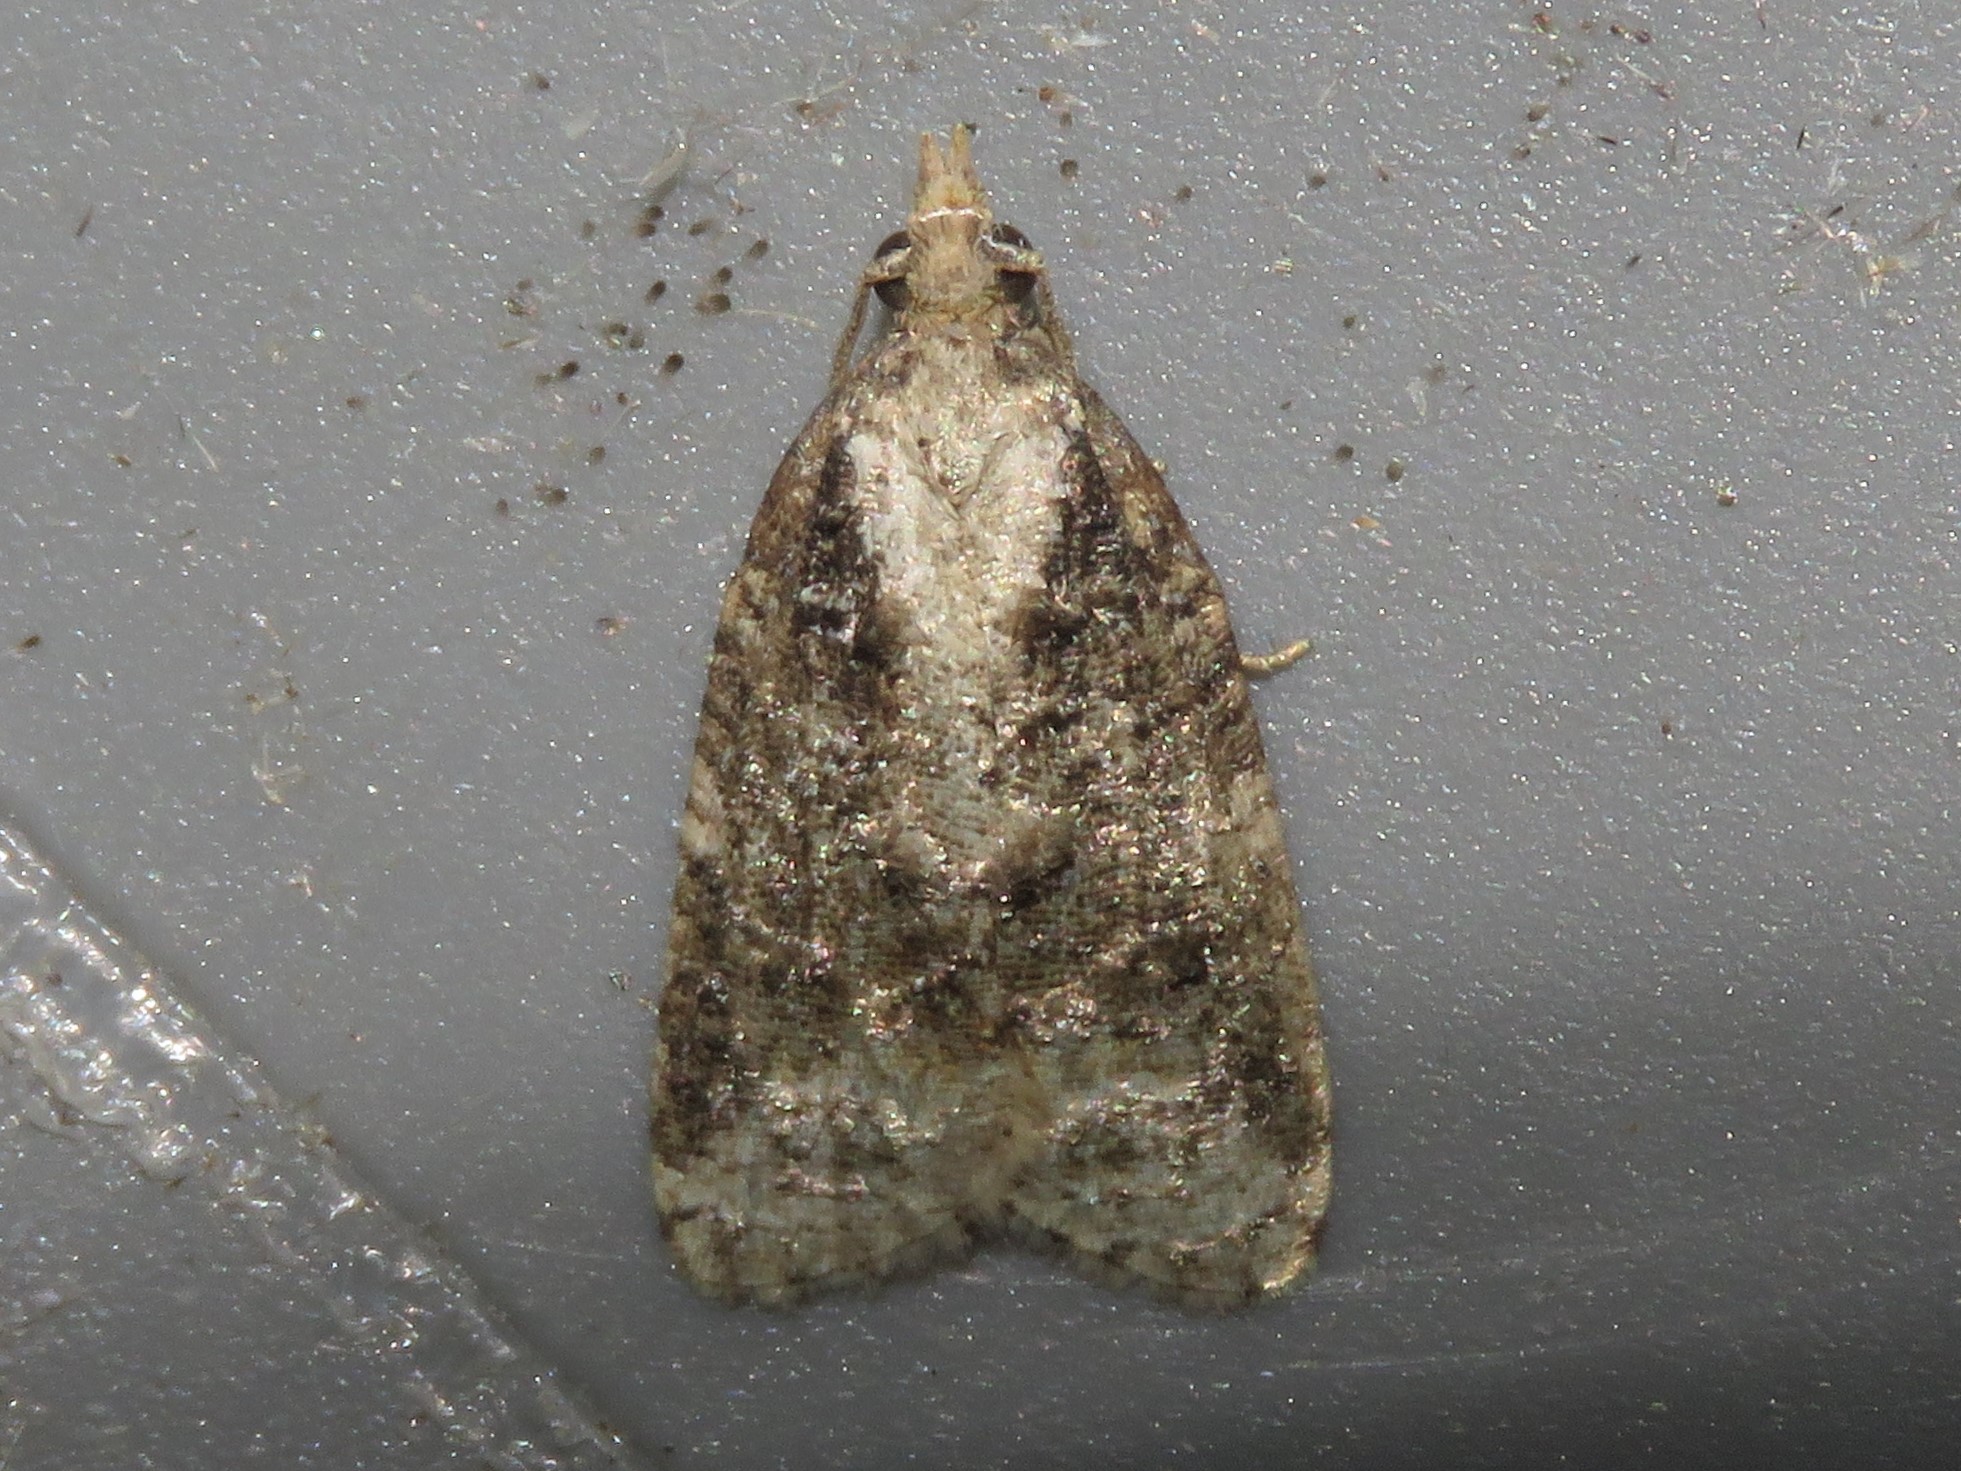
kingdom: Animalia
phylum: Arthropoda
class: Insecta
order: Lepidoptera
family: Tortricidae
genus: Platynota
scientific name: Platynota exasperatana
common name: Exasperating platynota moth
